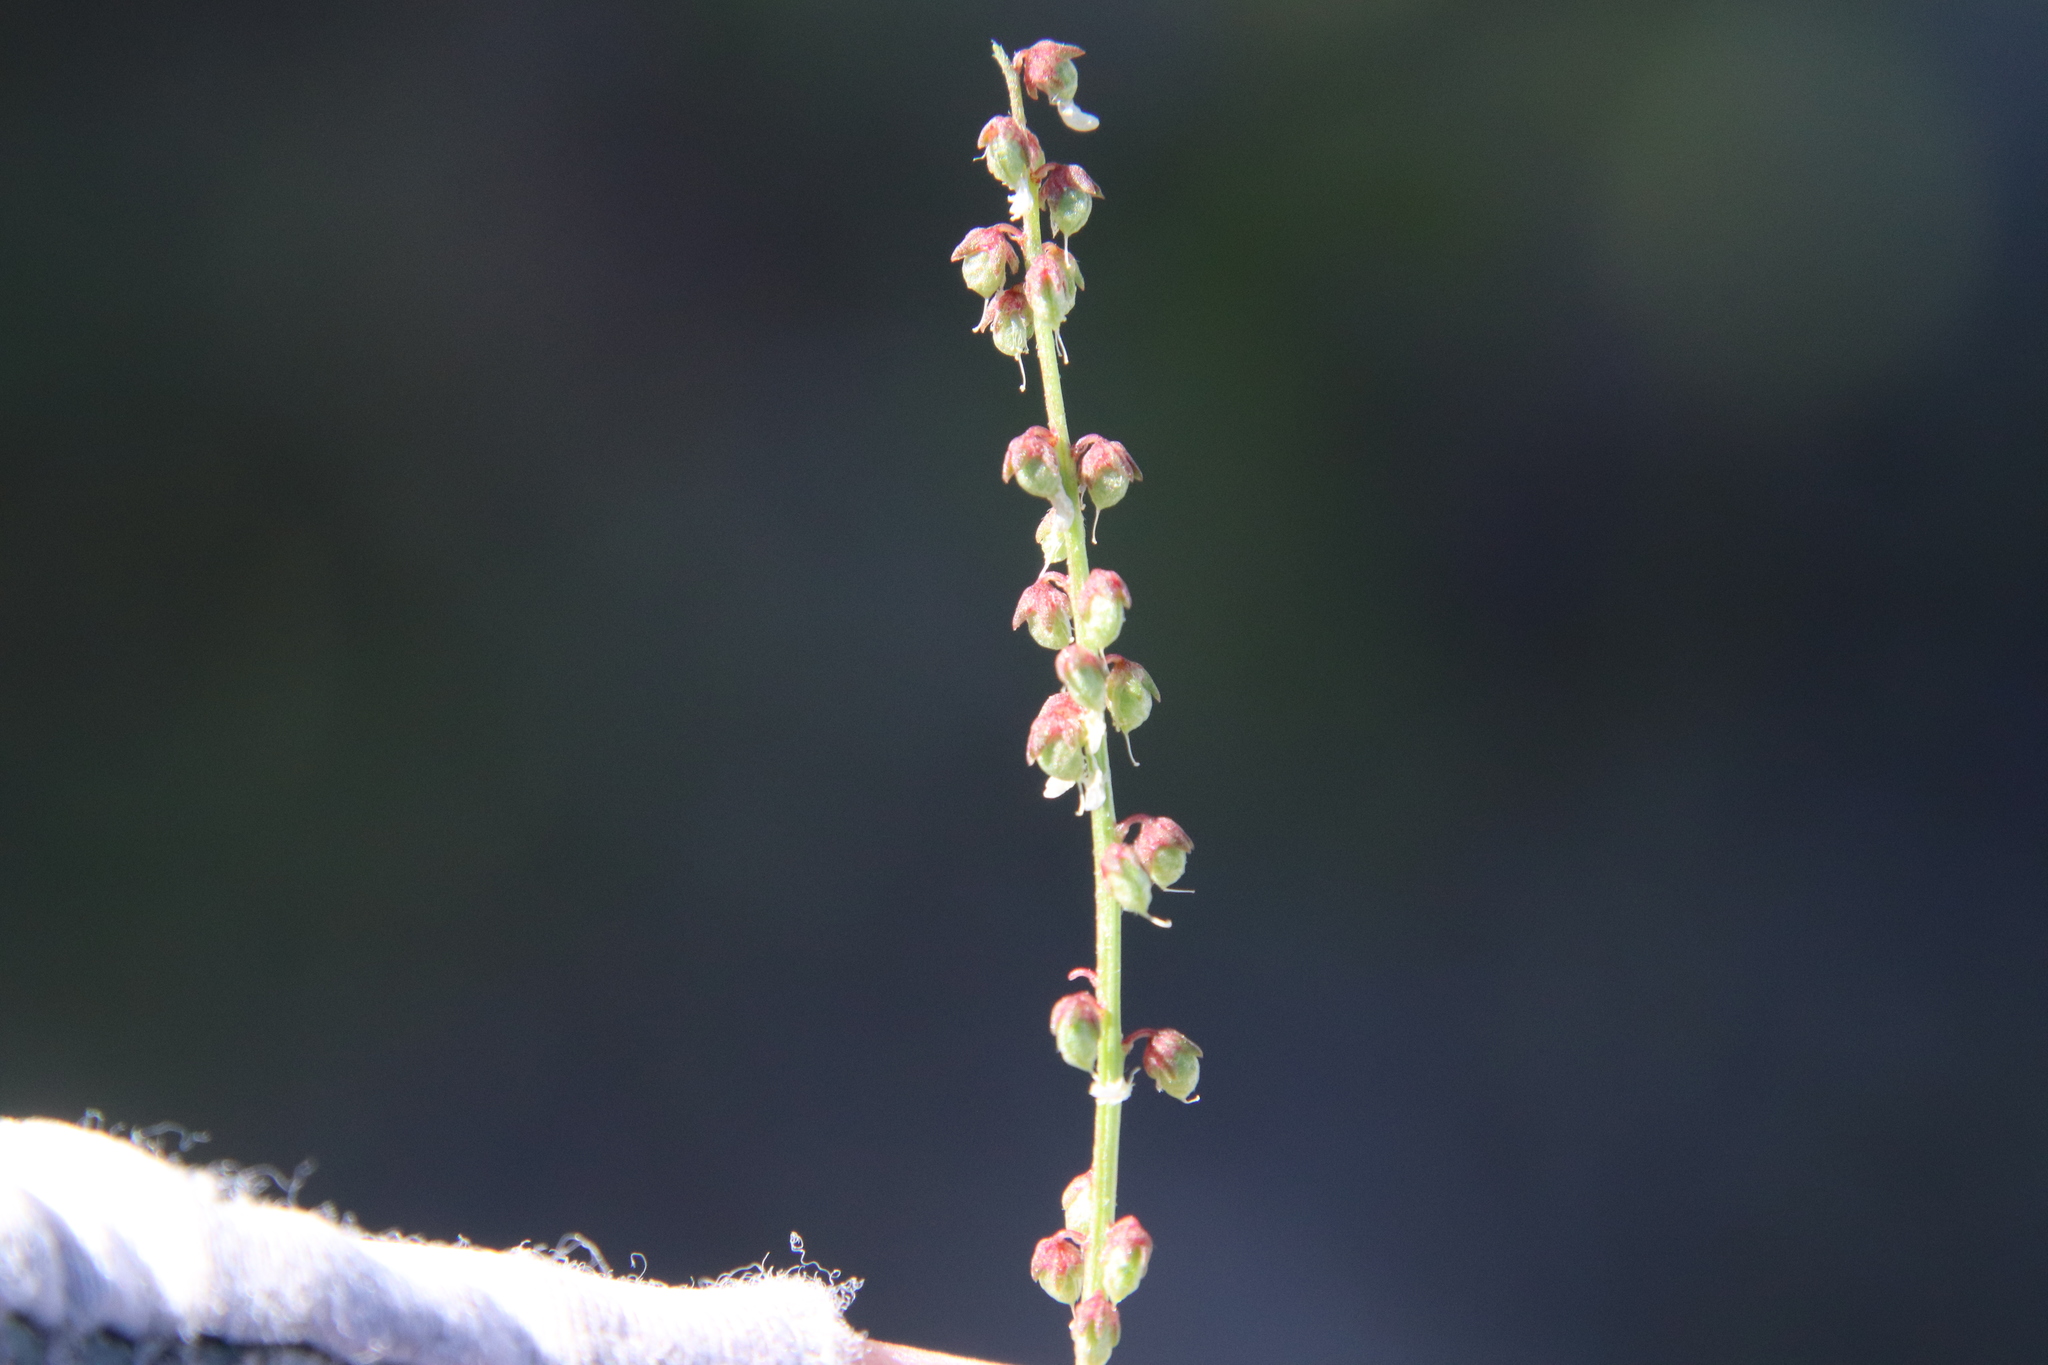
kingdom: Plantae
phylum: Tracheophyta
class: Magnoliopsida
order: Fabales
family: Fabaceae
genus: Melilotus
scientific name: Melilotus indicus
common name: Small melilot
